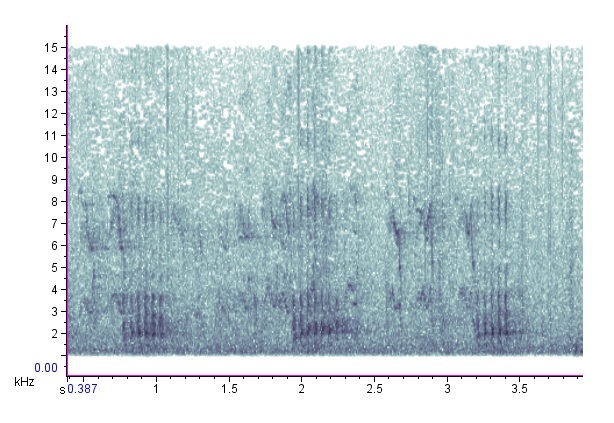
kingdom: Animalia
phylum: Chordata
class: Aves
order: Piciformes
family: Picidae
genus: Melanerpes
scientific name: Melanerpes erythrocephalus
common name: Red-headed woodpecker
